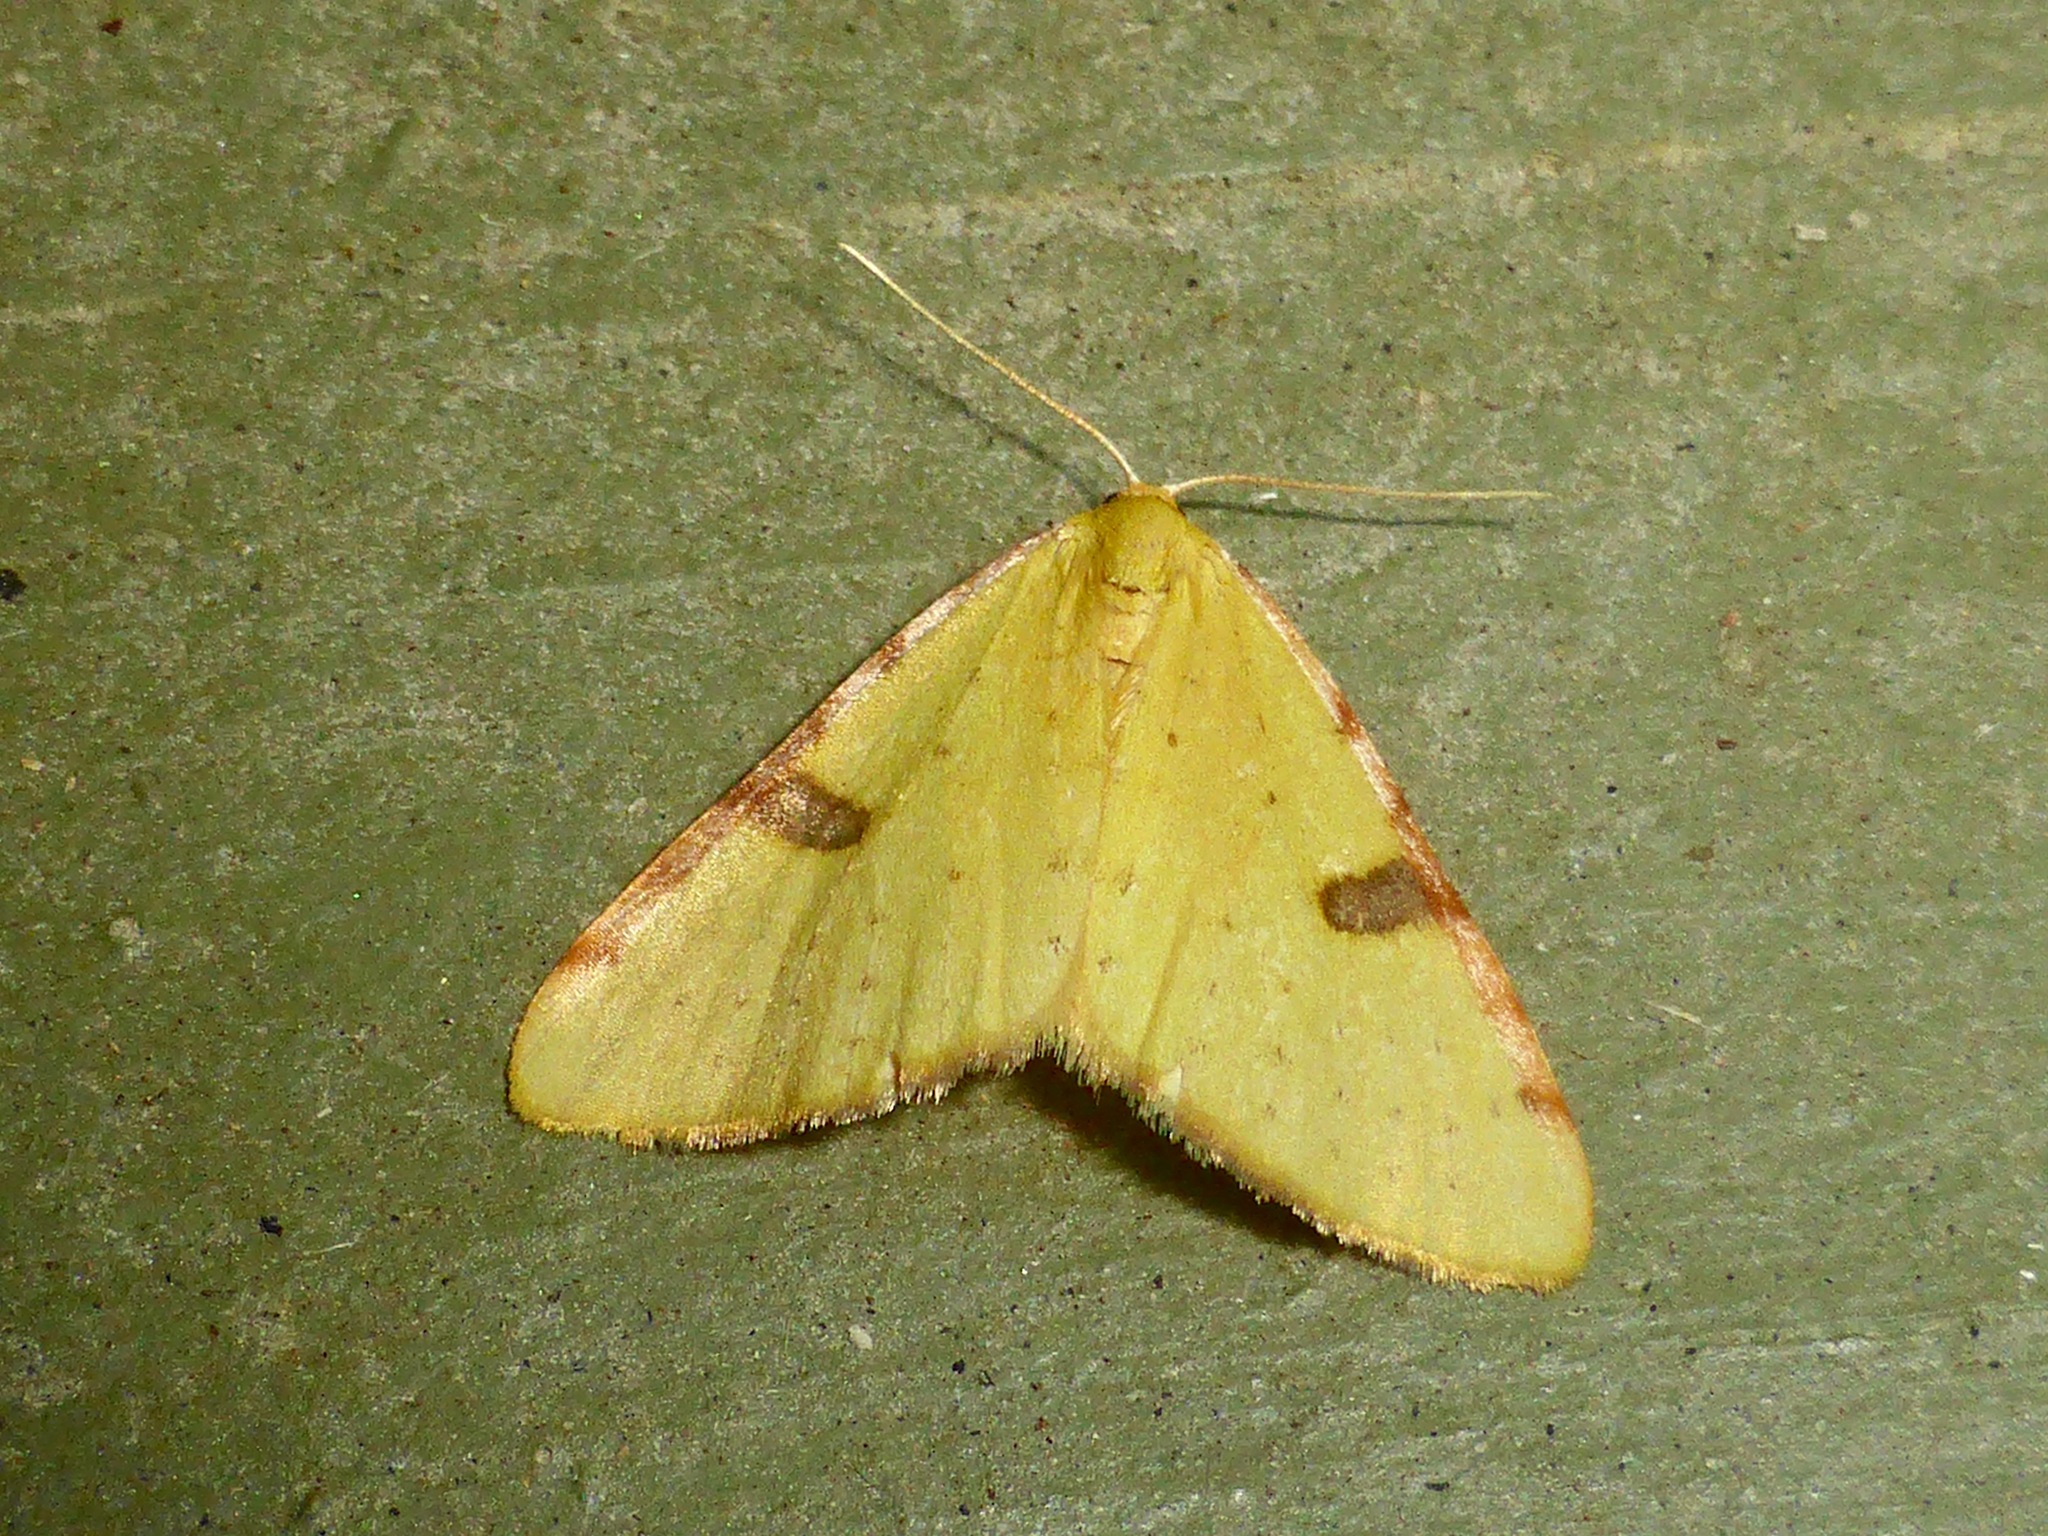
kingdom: Animalia
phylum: Arthropoda
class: Insecta
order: Lepidoptera
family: Geometridae
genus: Epiphryne
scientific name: Epiphryne xanthaspis
